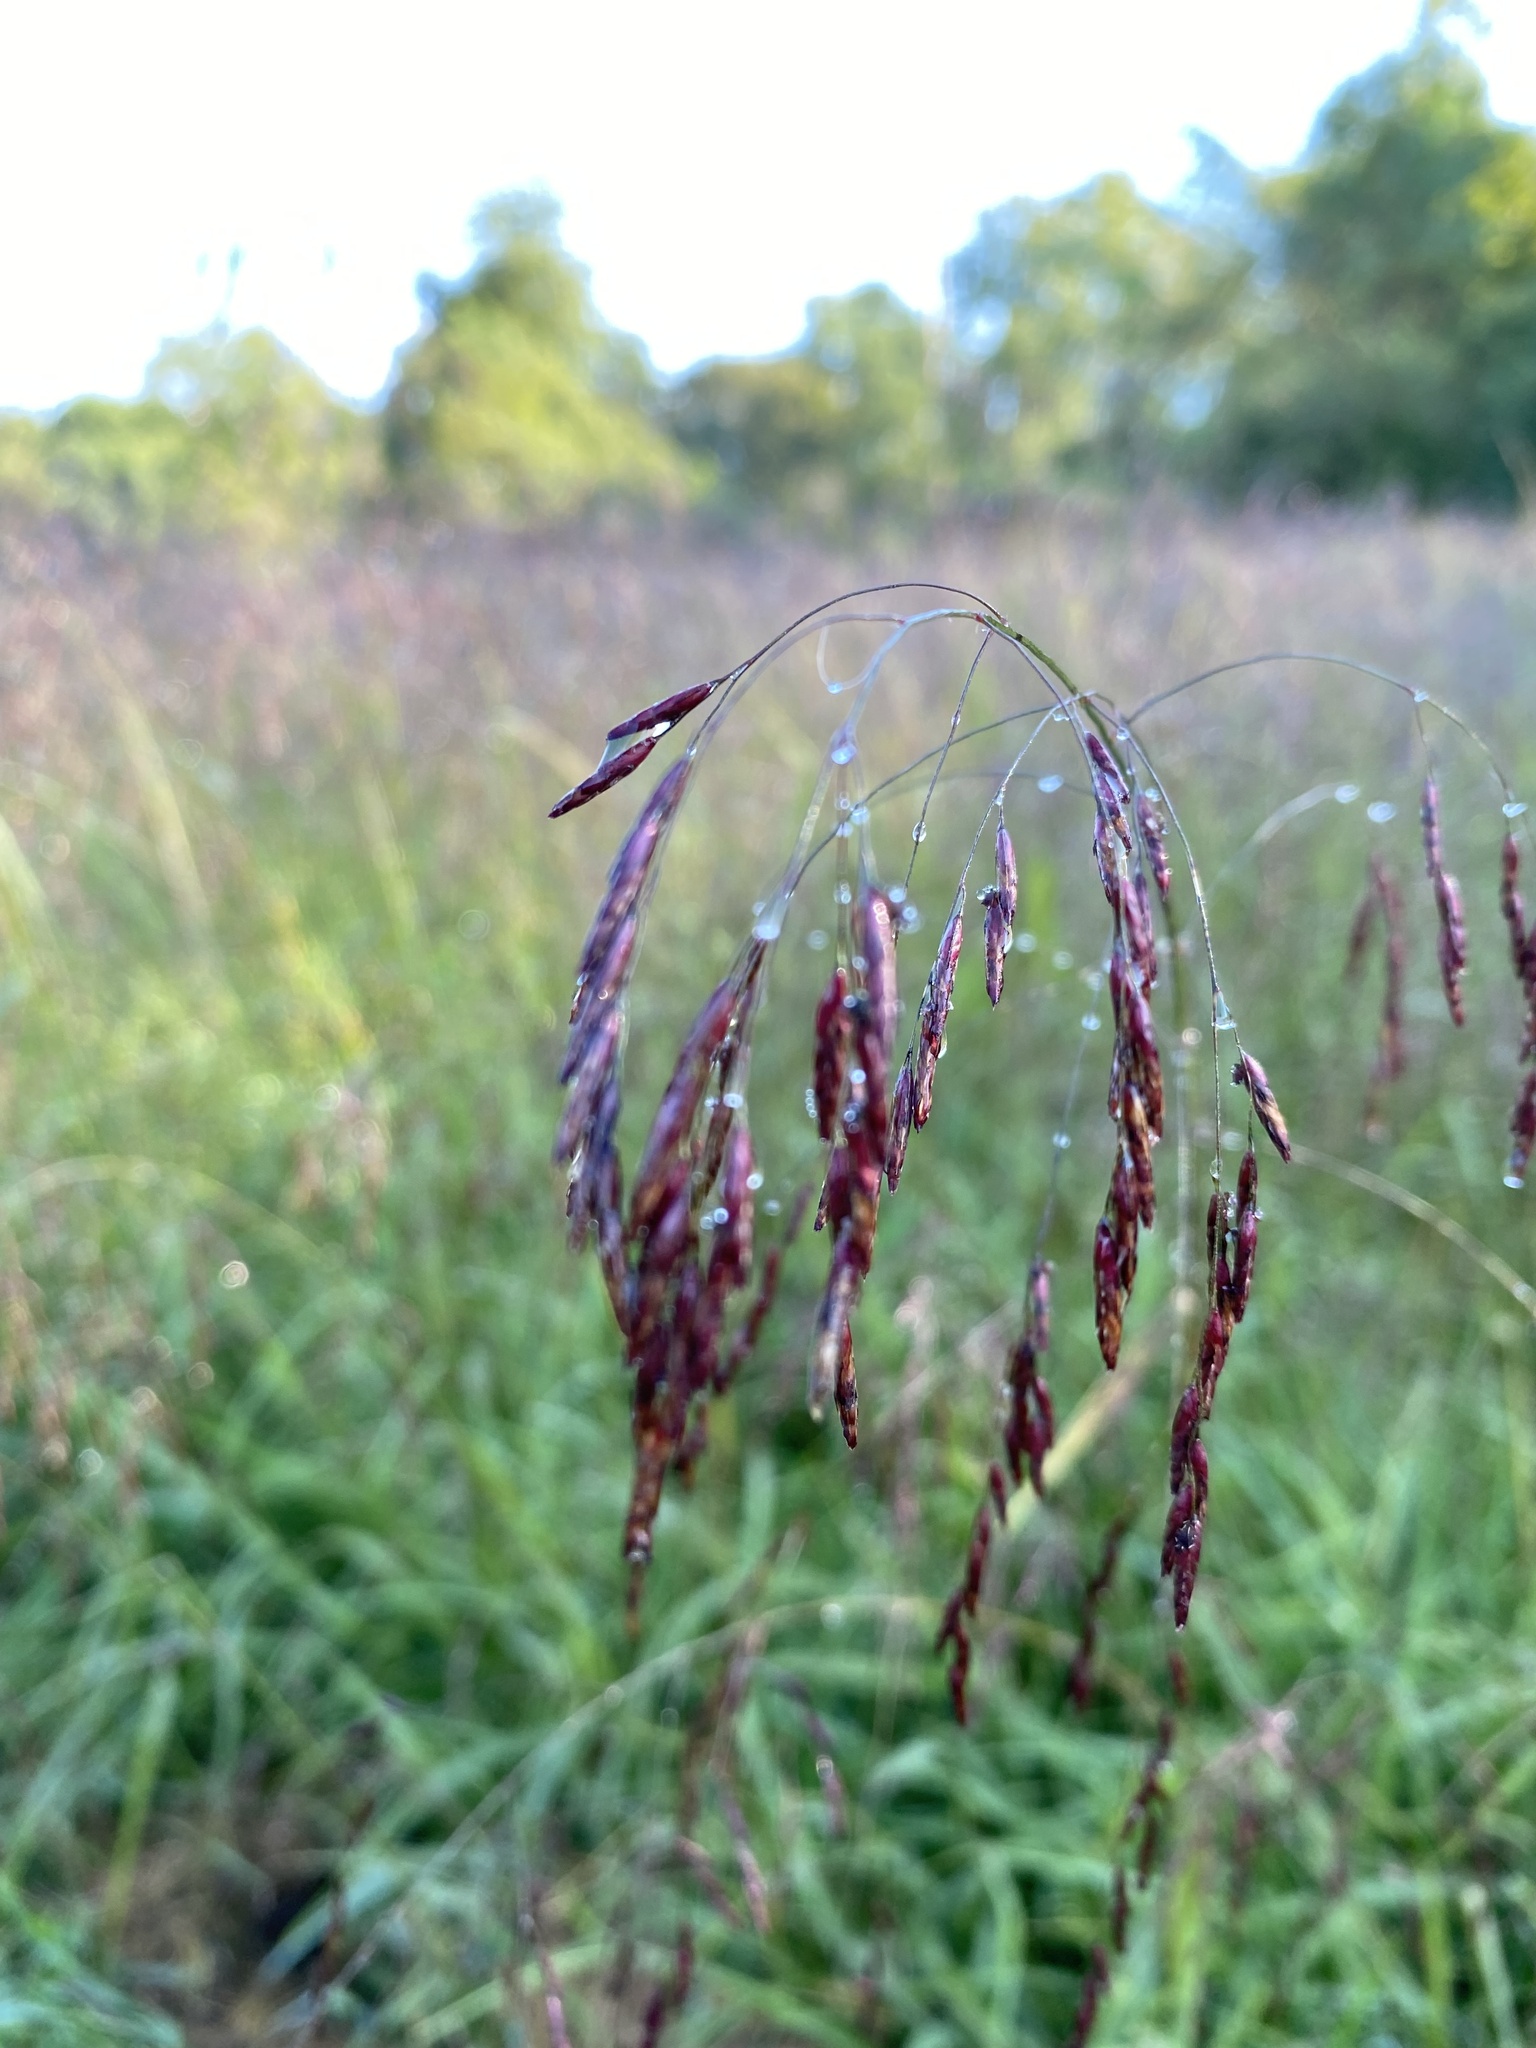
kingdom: Plantae
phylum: Tracheophyta
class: Liliopsida
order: Poales
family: Poaceae
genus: Tridens
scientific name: Tridens flavus
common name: Purpletop
